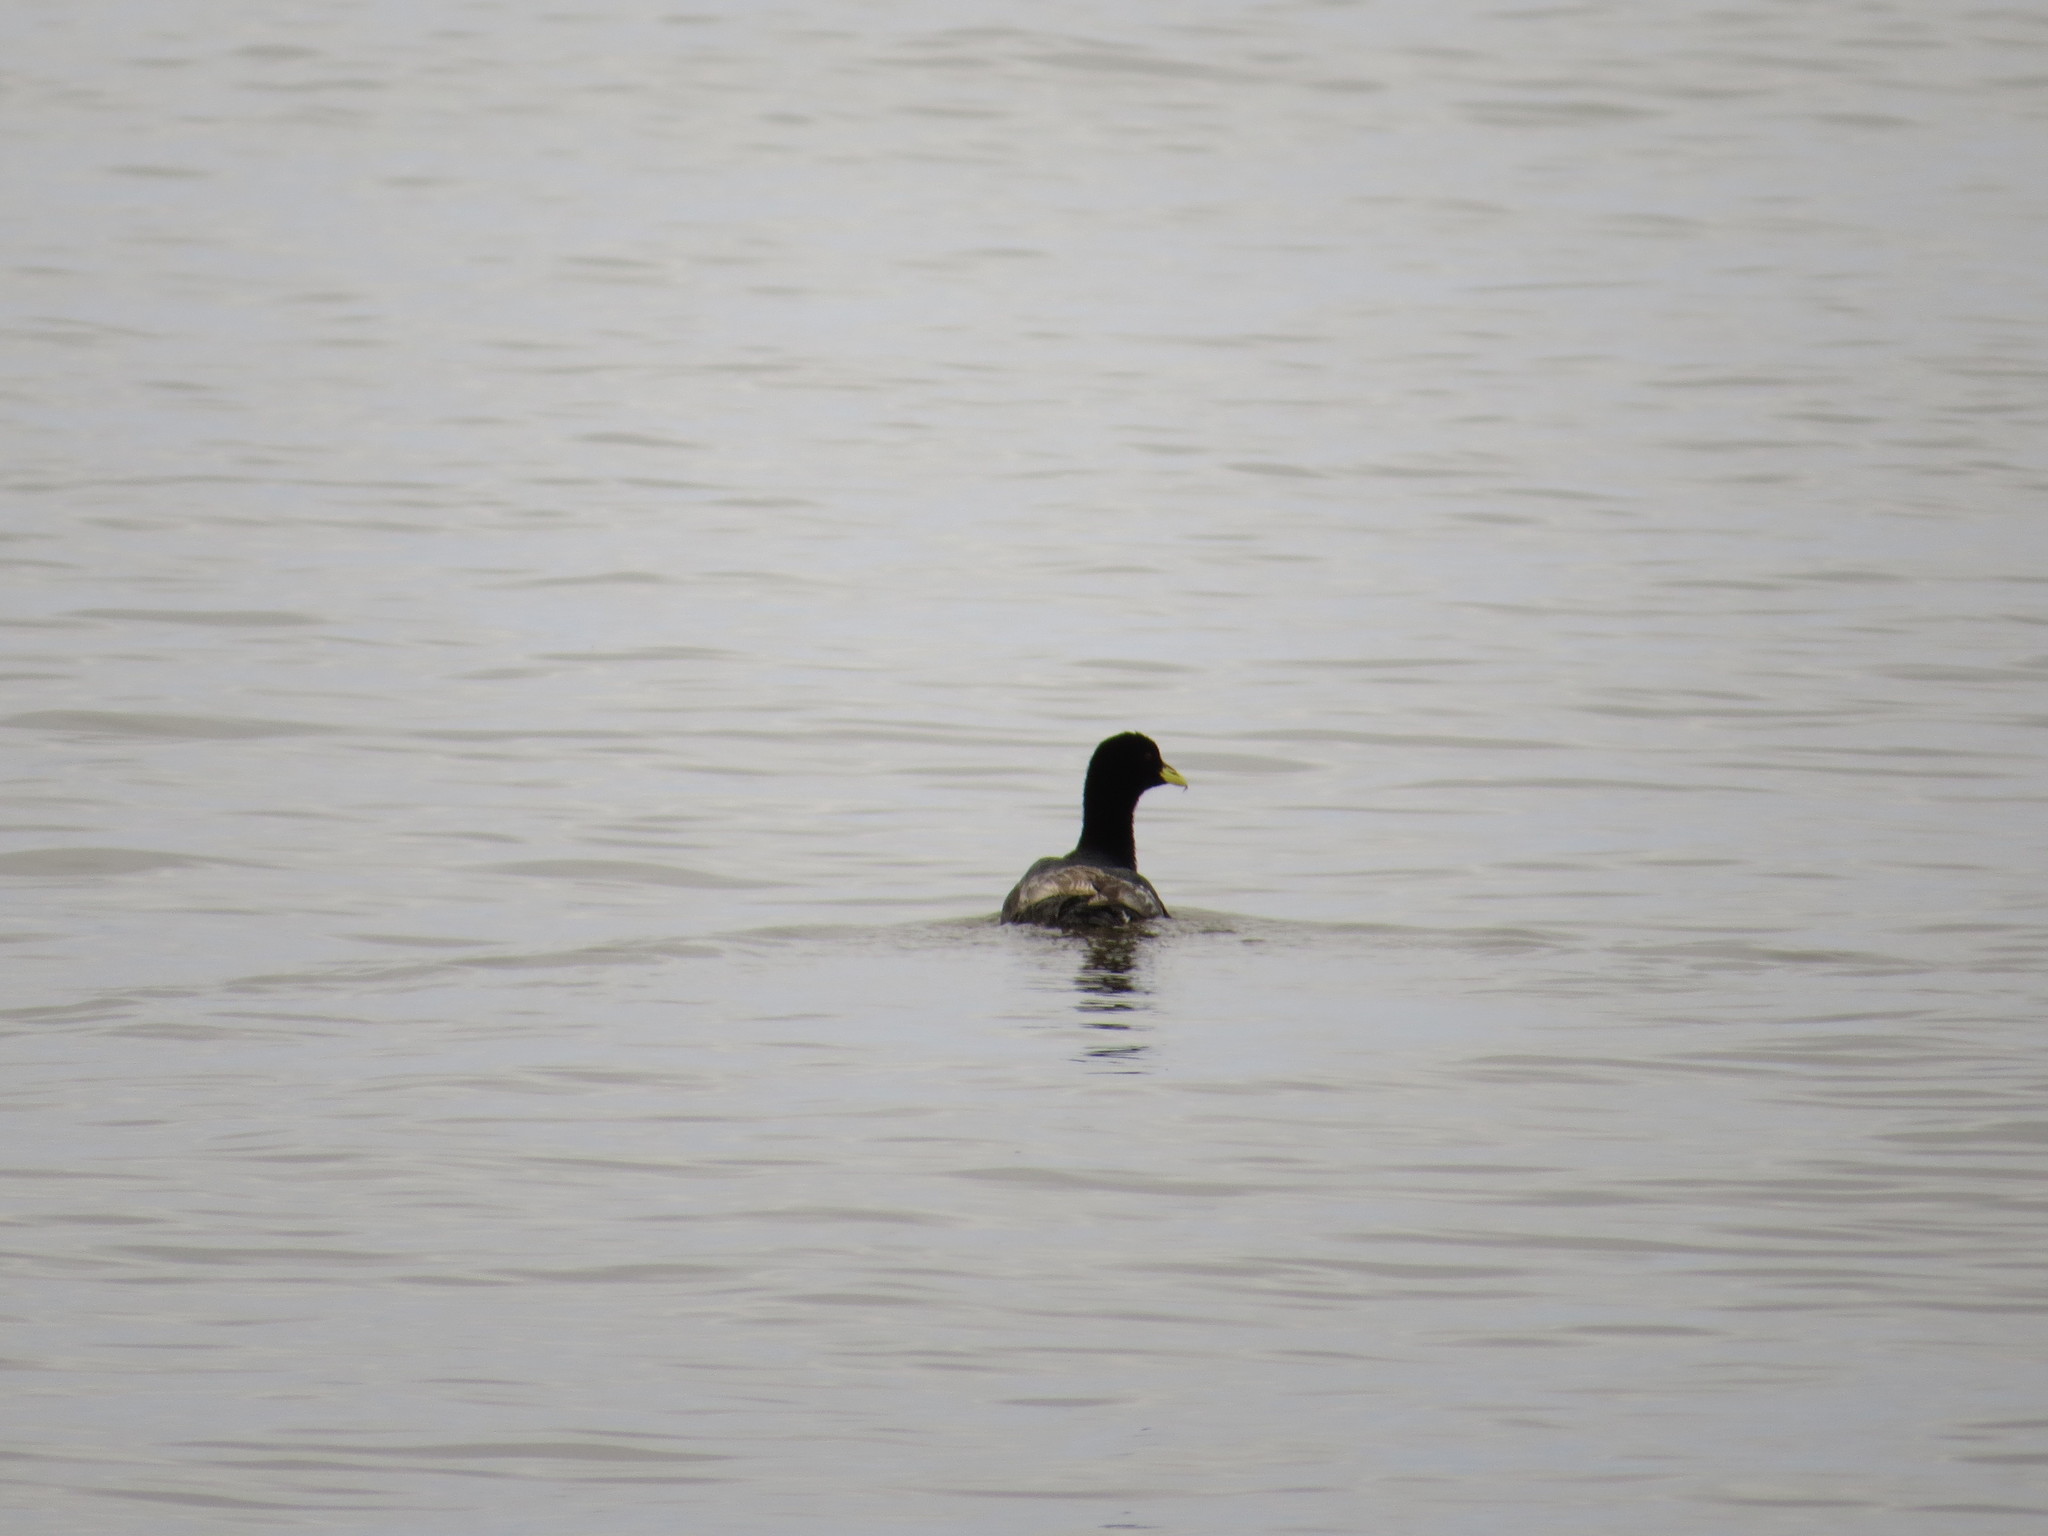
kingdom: Animalia
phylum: Chordata
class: Aves
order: Gruiformes
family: Rallidae
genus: Fulica
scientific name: Fulica armillata
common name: Red-gartered coot
